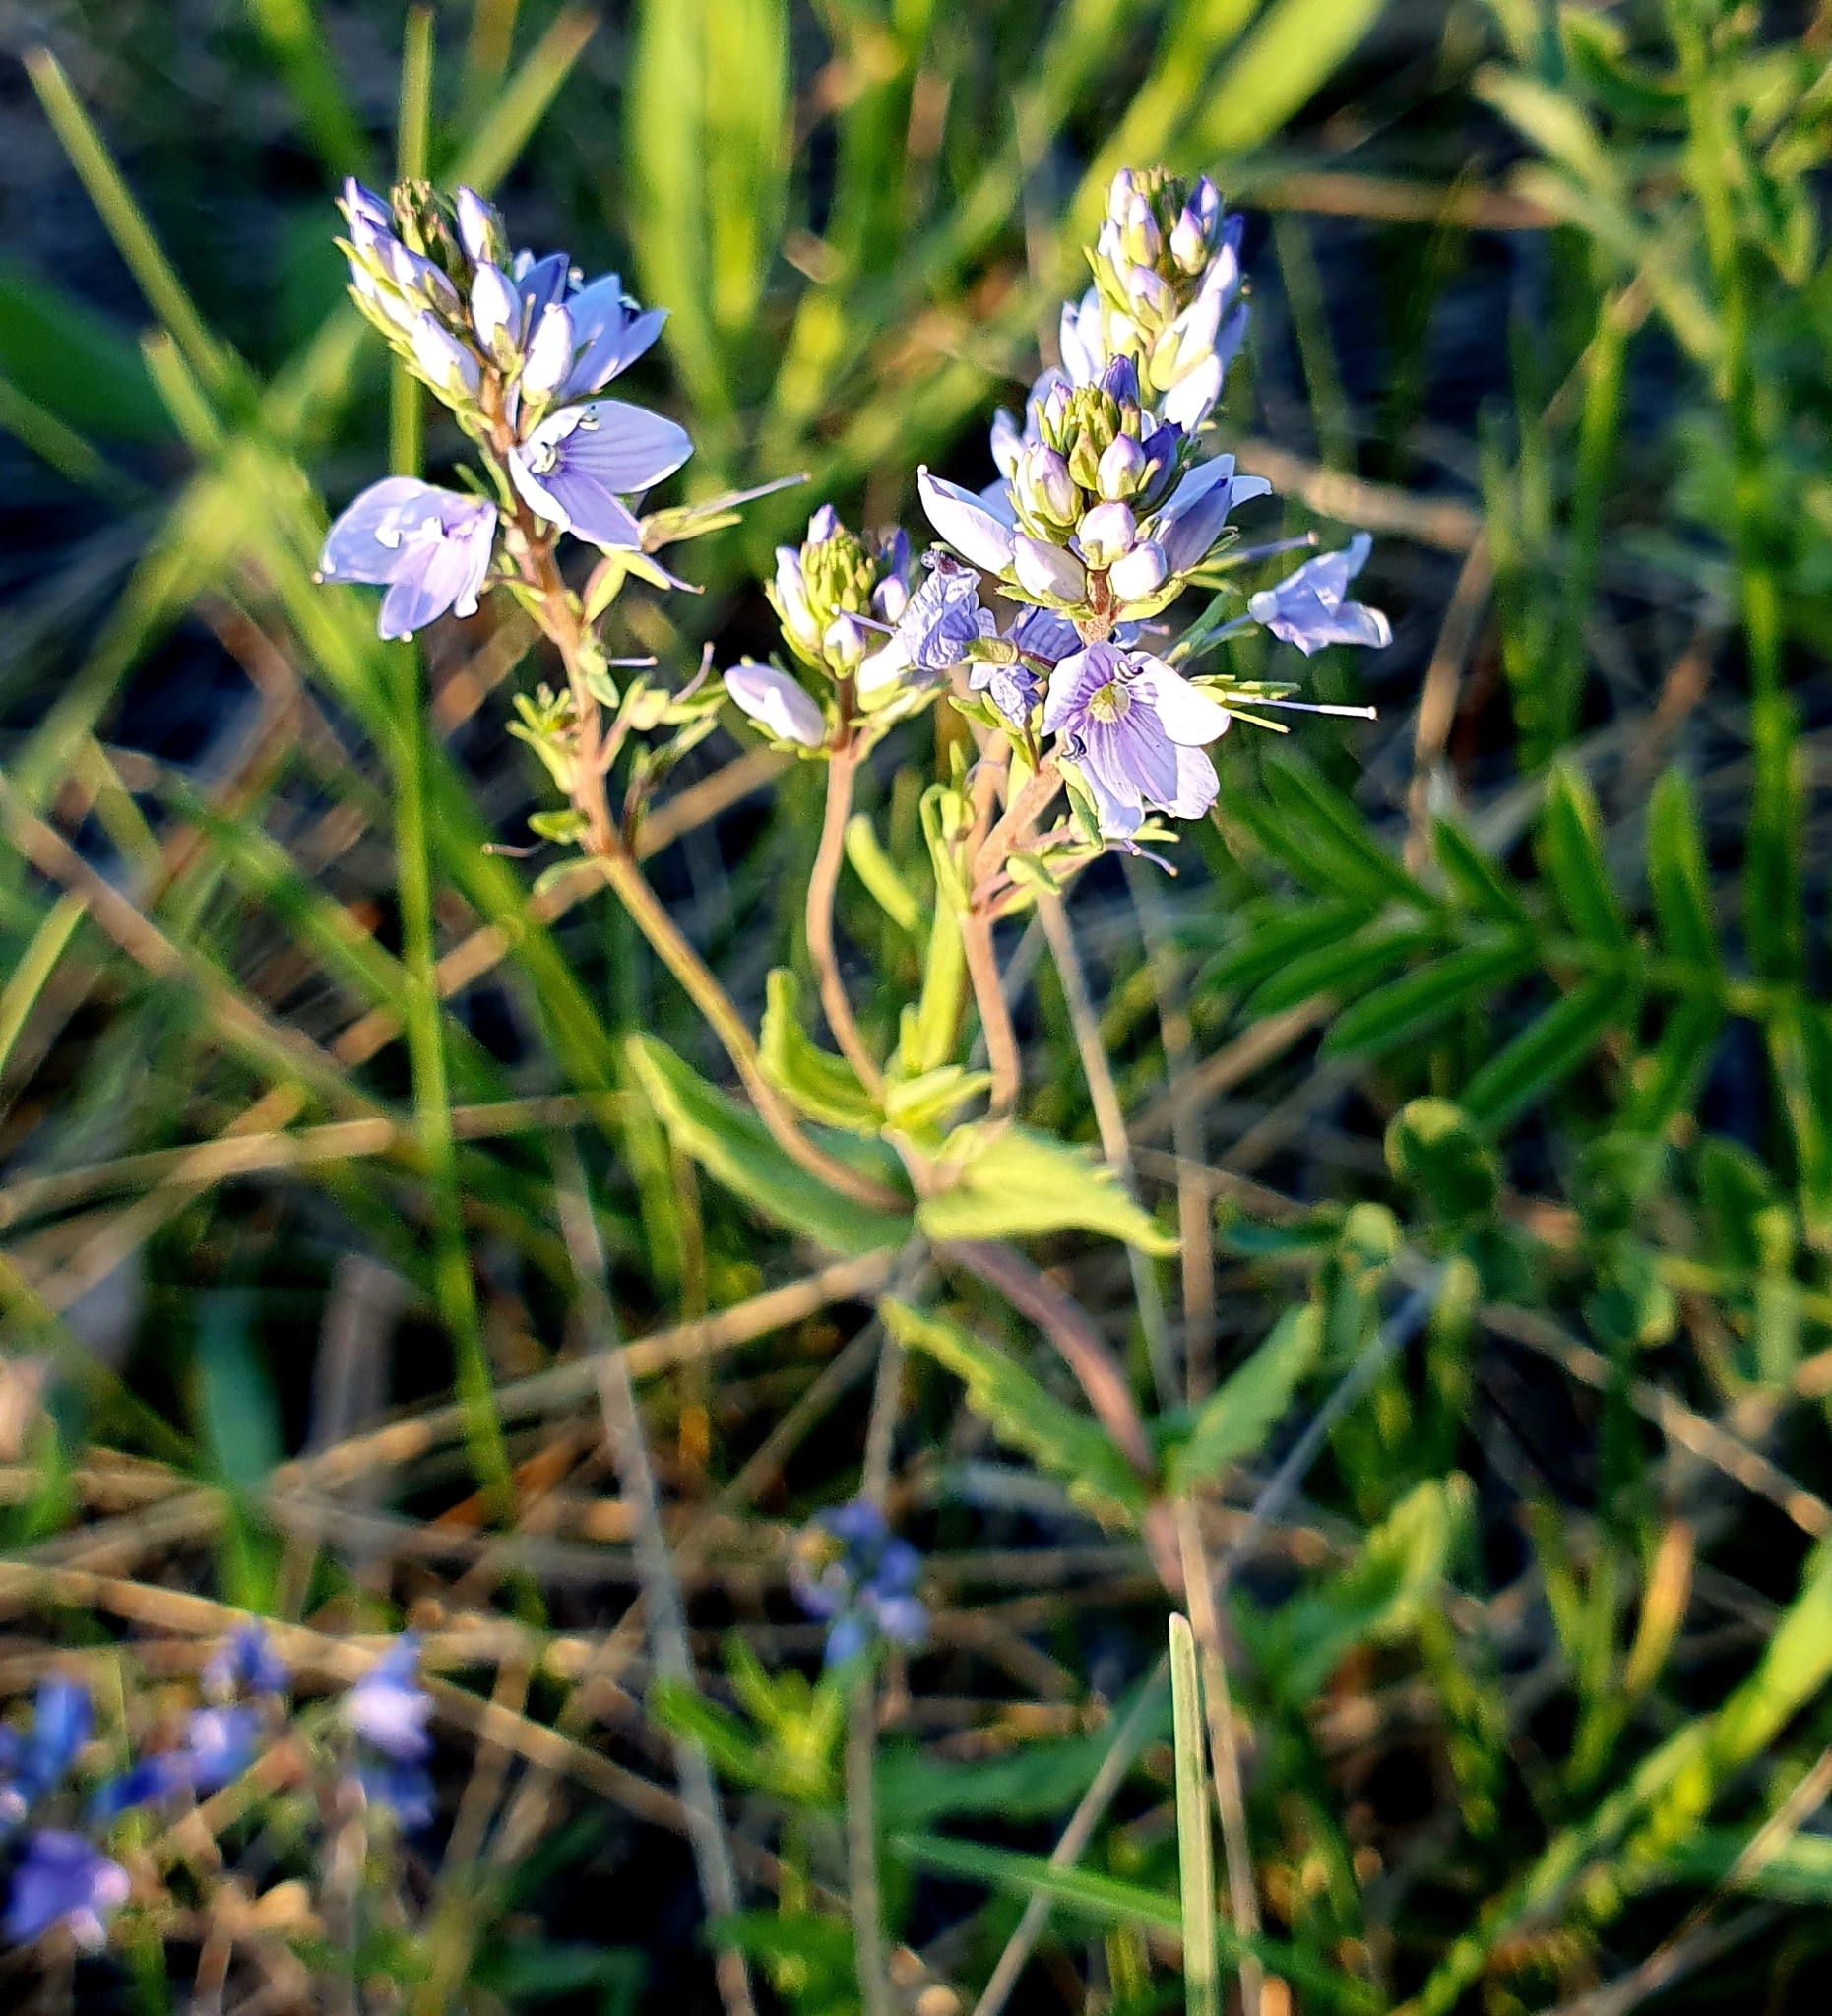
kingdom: Plantae
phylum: Tracheophyta
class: Magnoliopsida
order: Lamiales
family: Plantaginaceae
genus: Veronica
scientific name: Veronica prostrata
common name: Prostrate speedwell
